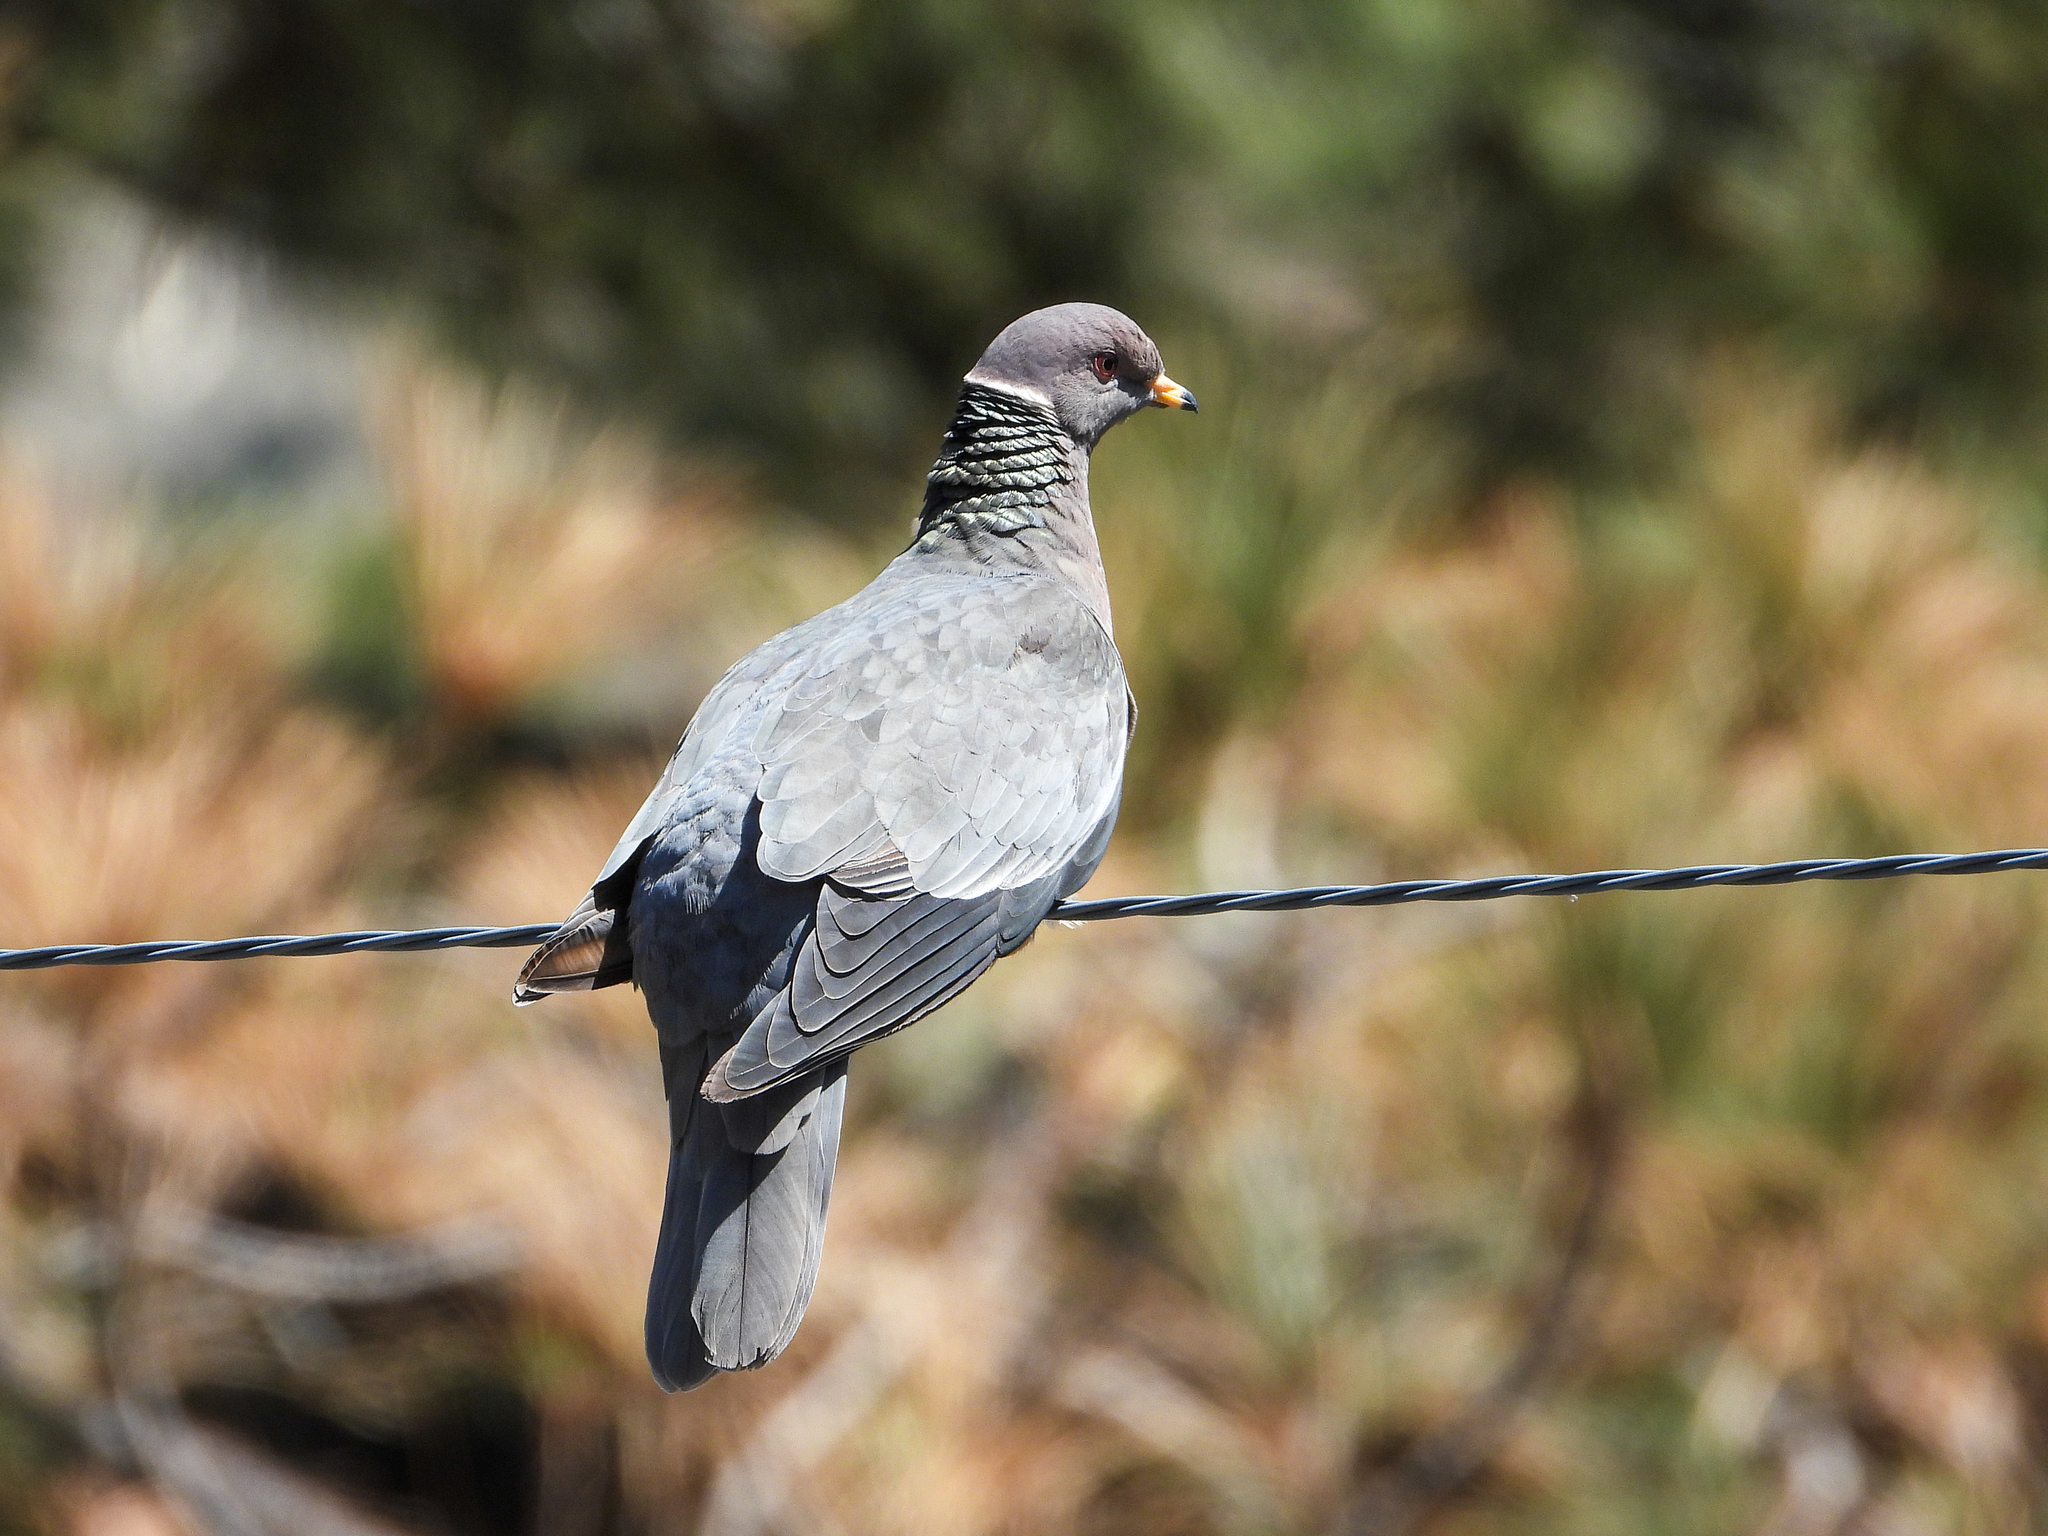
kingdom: Animalia
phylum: Chordata
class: Aves
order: Columbiformes
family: Columbidae
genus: Patagioenas
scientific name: Patagioenas fasciata
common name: Band-tailed pigeon
